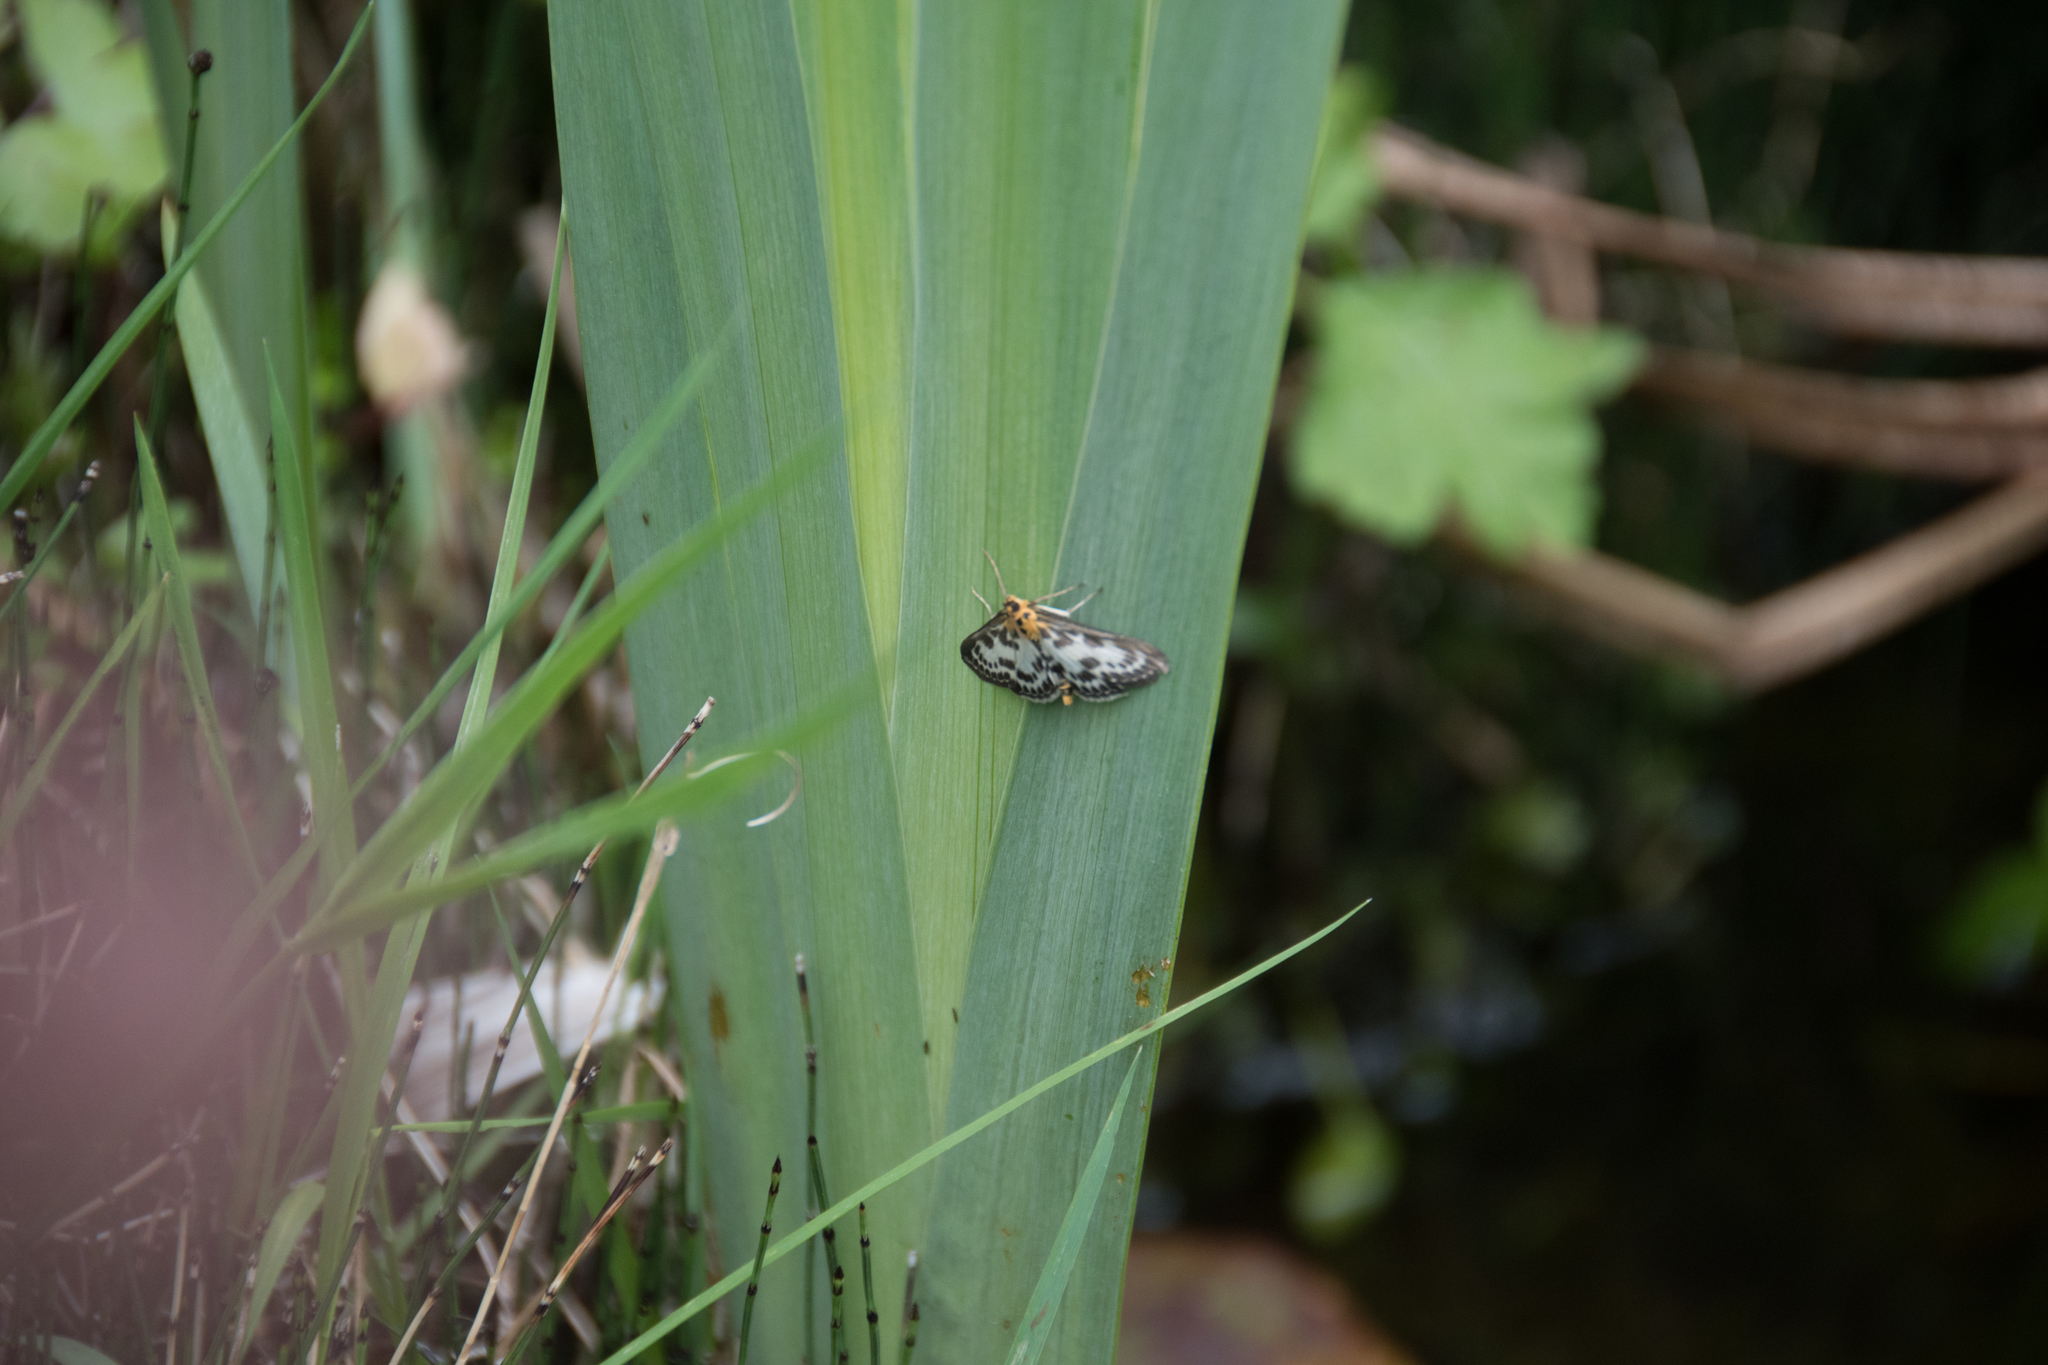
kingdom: Animalia
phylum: Arthropoda
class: Insecta
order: Lepidoptera
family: Crambidae
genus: Anania
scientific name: Anania hortulata
